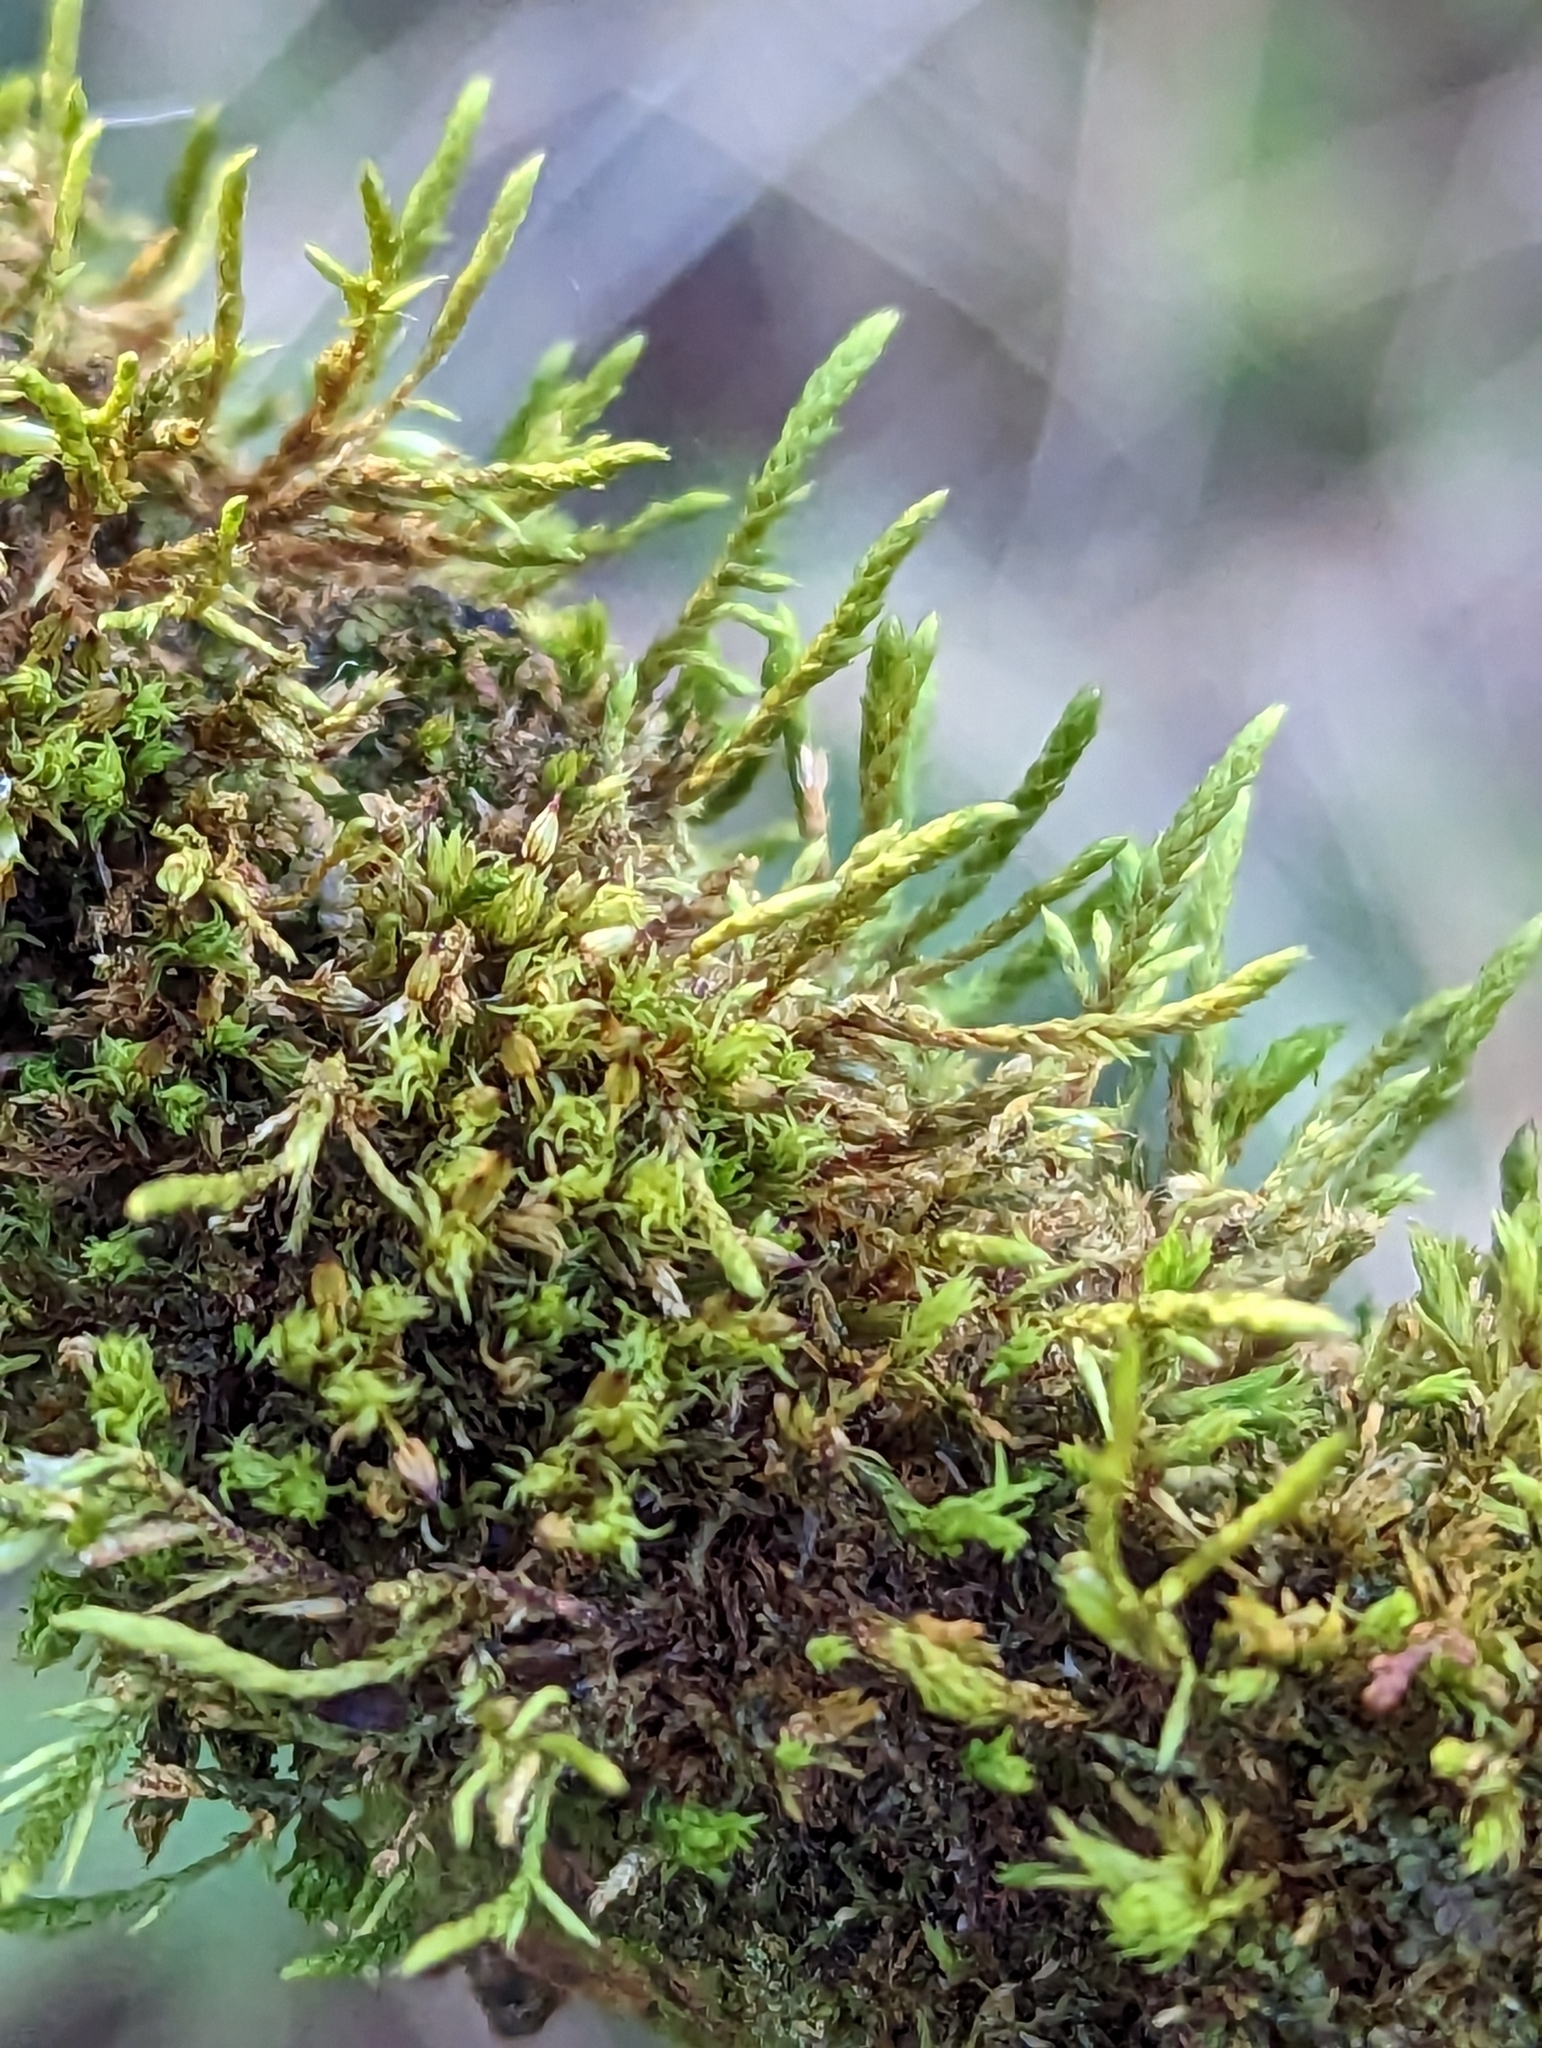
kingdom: Plantae
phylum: Bryophyta
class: Bryopsida
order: Hypnales
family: Cryphaeaceae
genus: Cryphaea
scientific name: Cryphaea heteromalla
